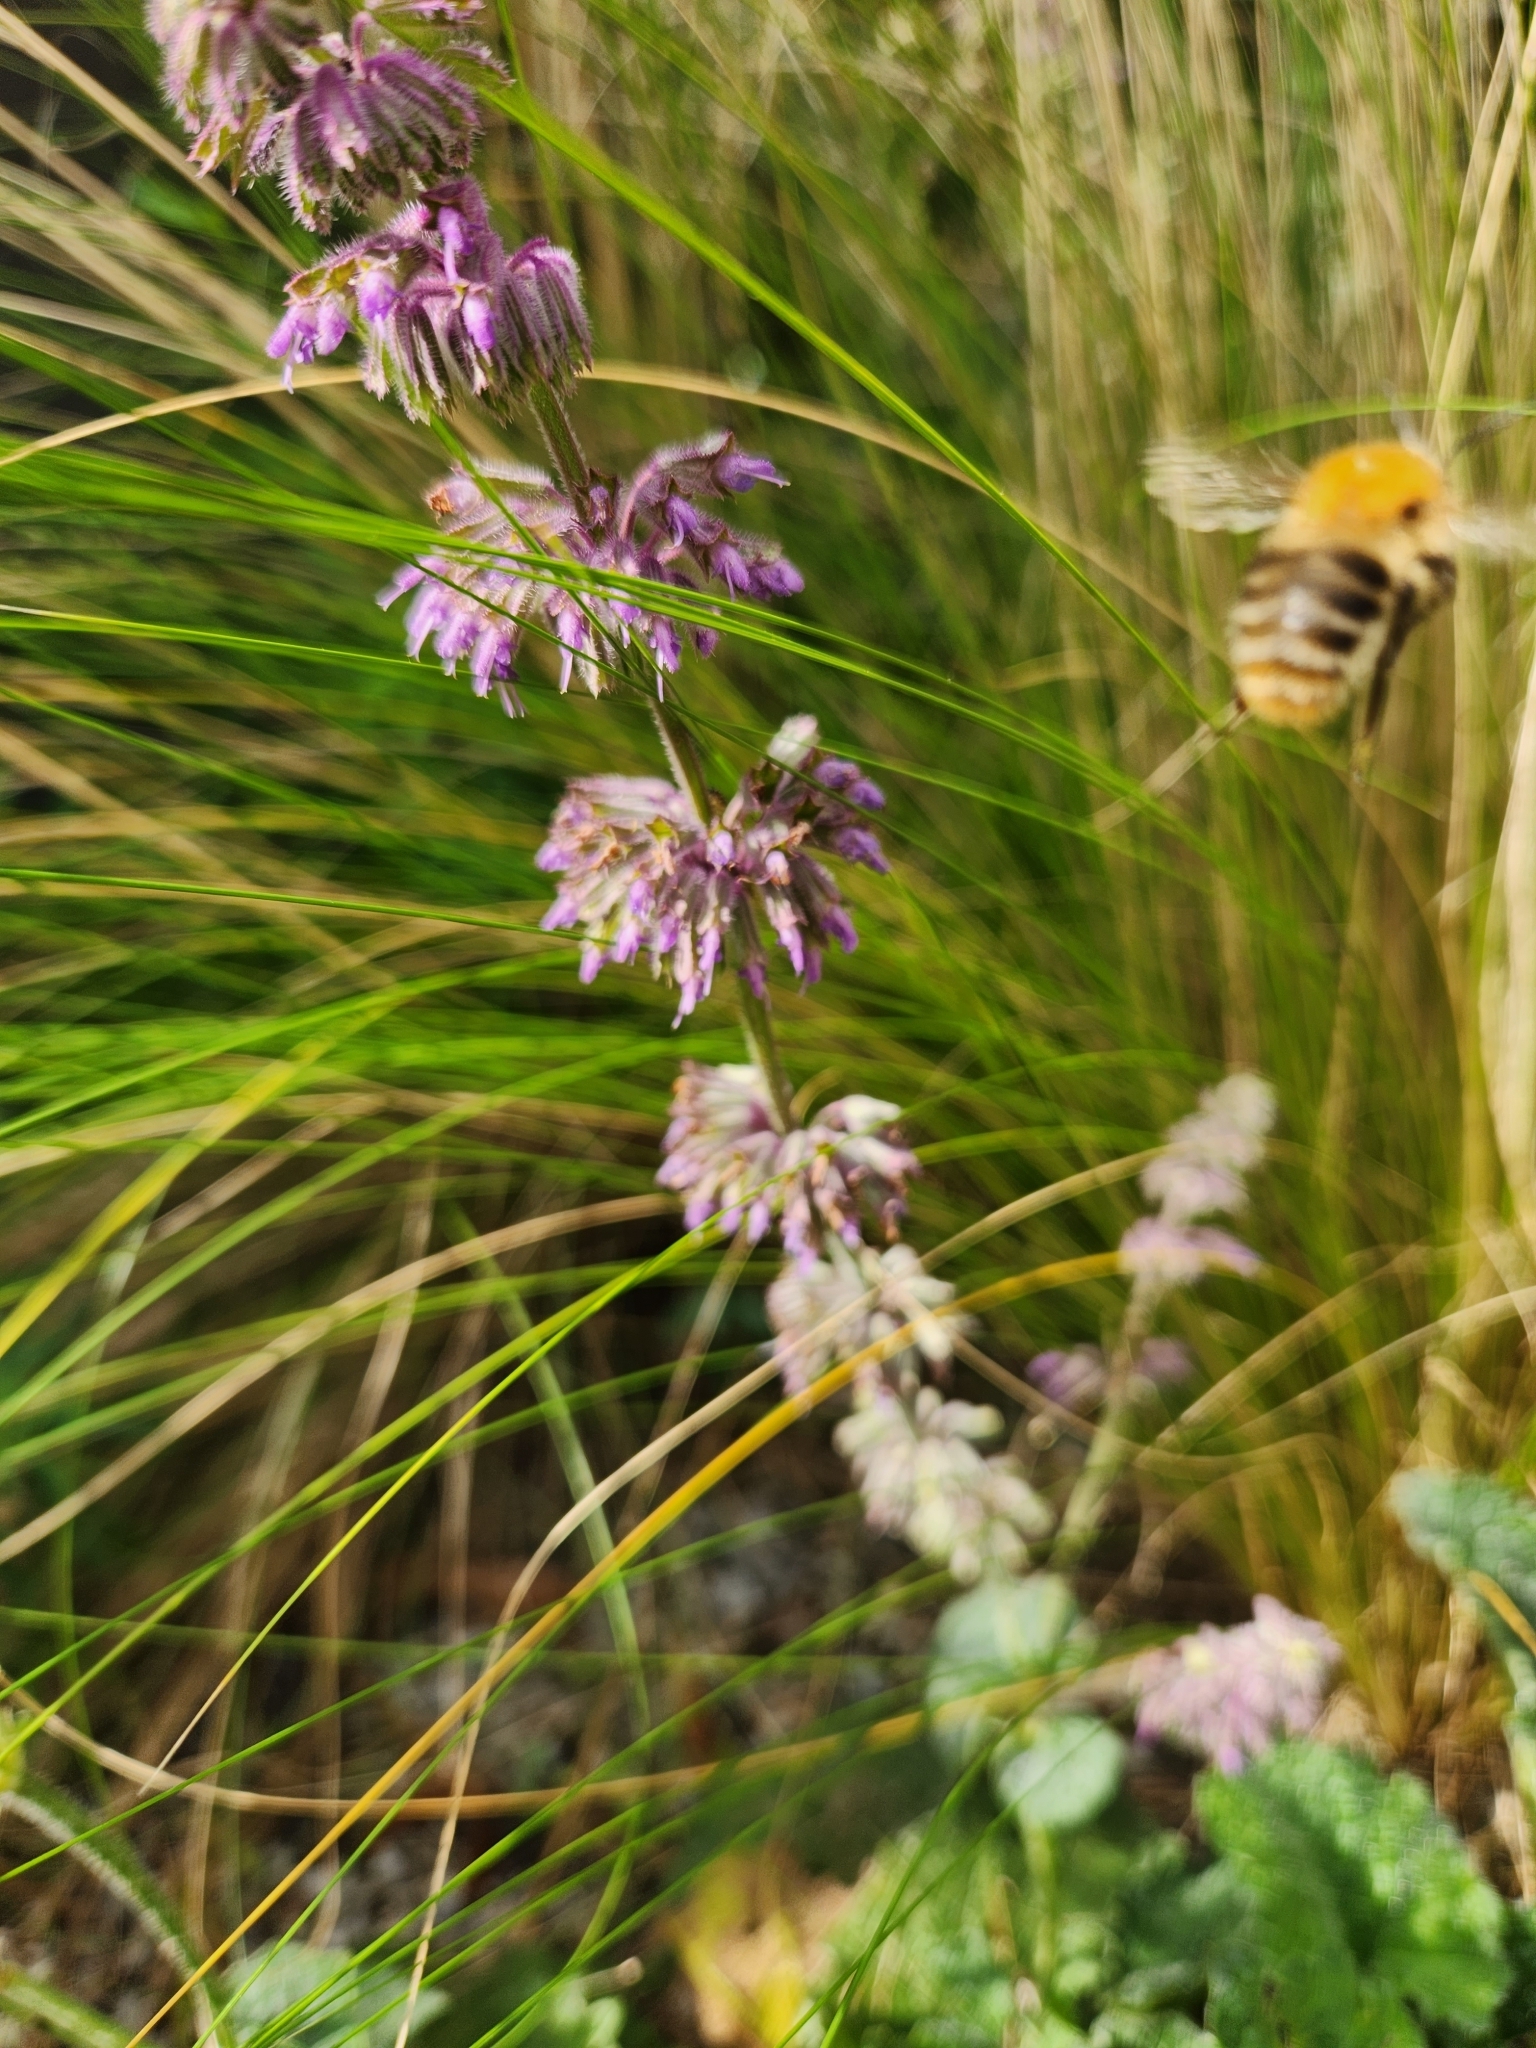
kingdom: Animalia
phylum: Arthropoda
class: Insecta
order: Hymenoptera
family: Apidae
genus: Bombus
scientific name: Bombus pascuorum
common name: Common carder bee
